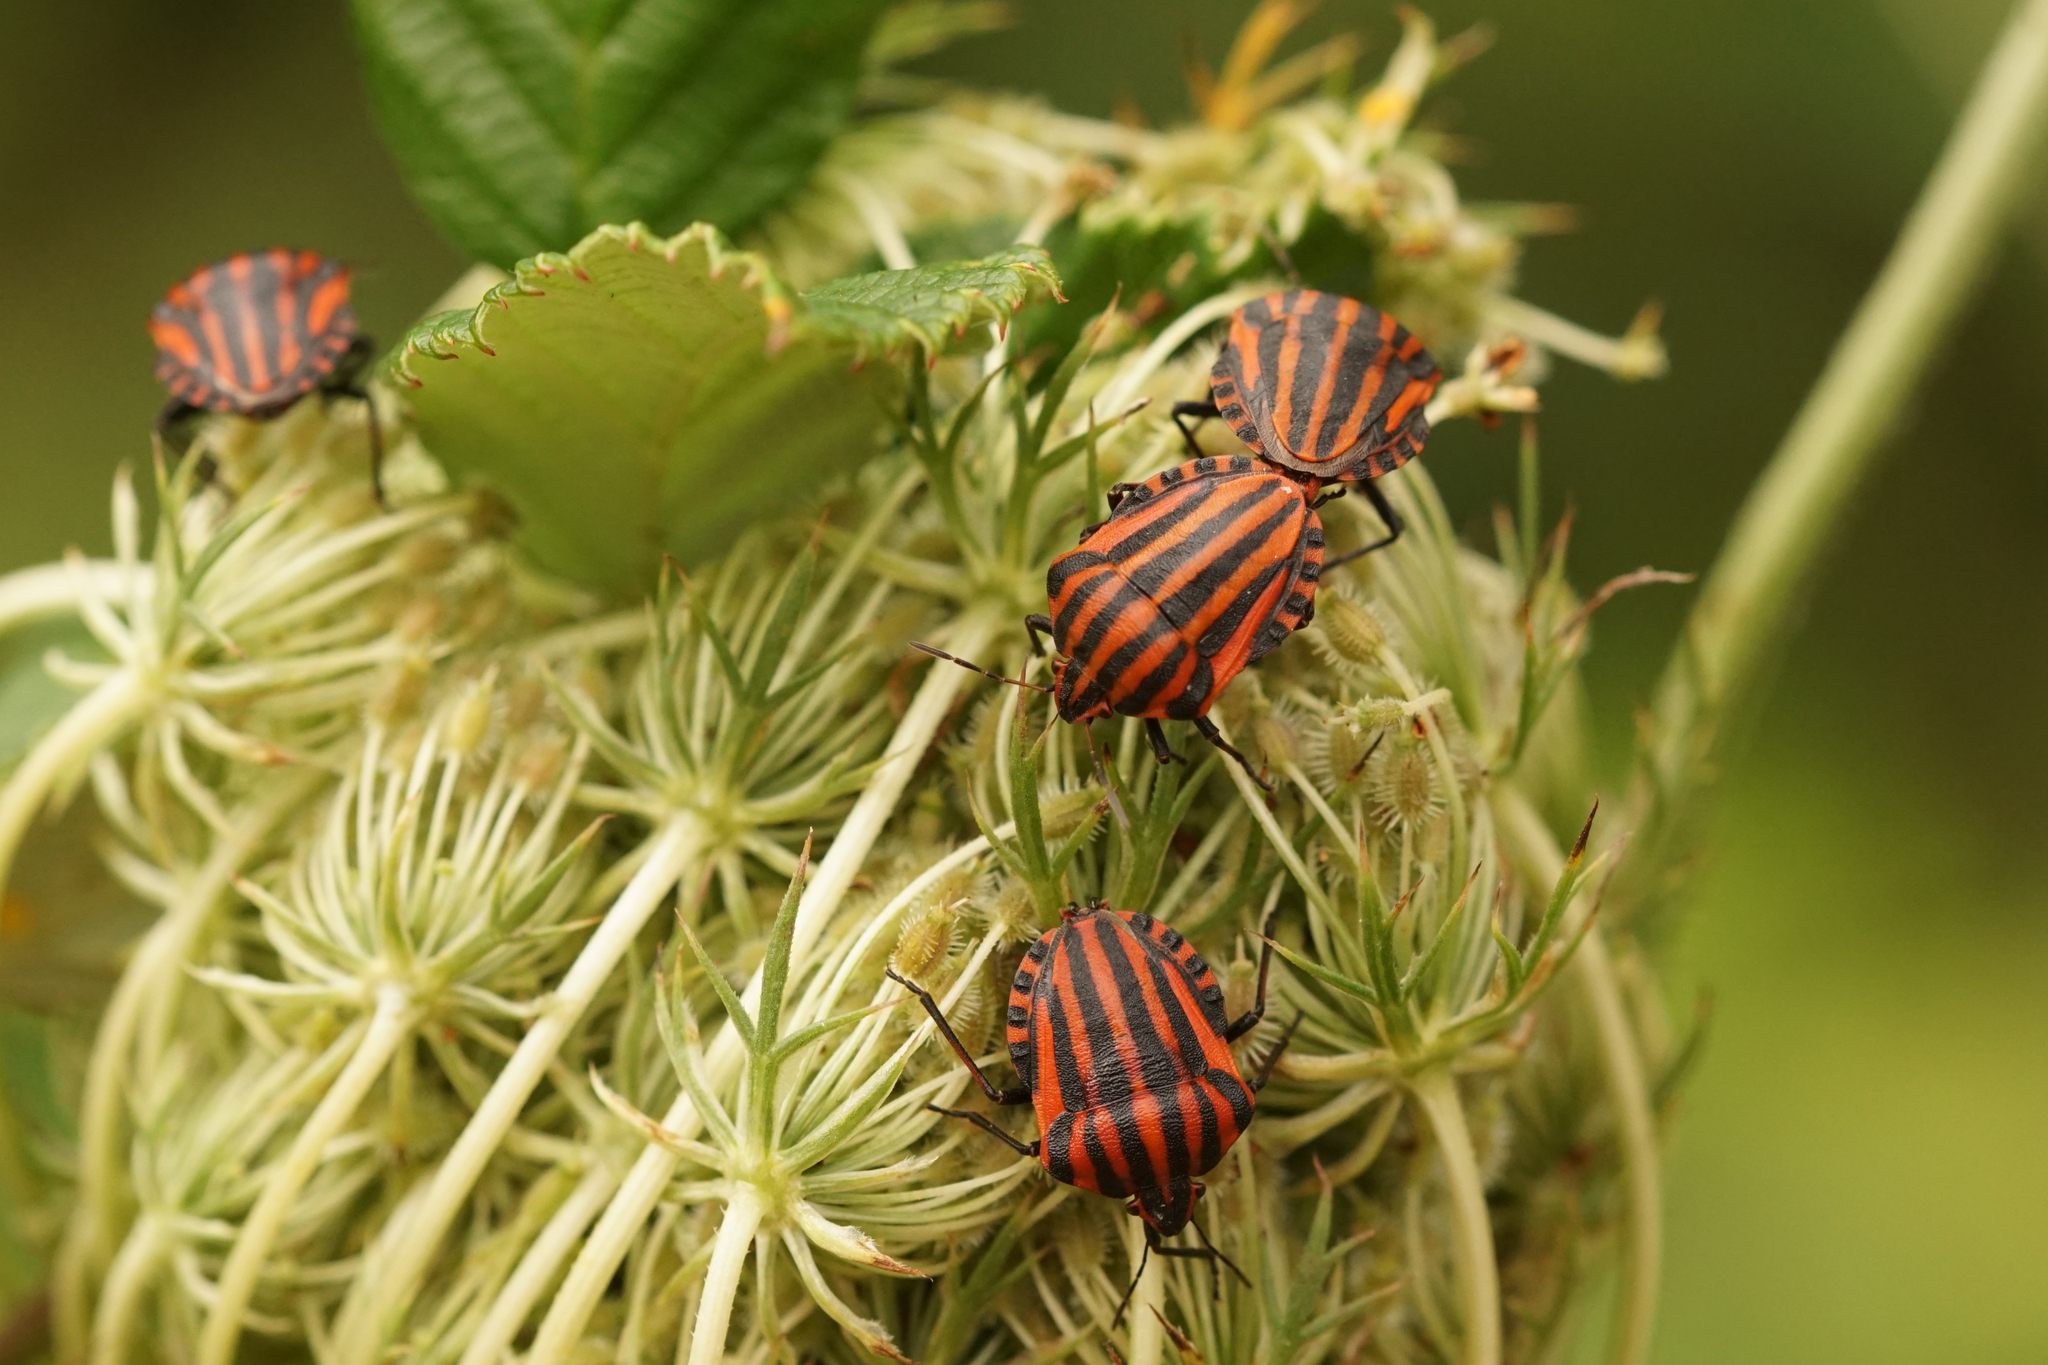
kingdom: Animalia
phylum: Arthropoda
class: Insecta
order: Hemiptera
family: Pentatomidae
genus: Graphosoma
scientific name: Graphosoma italicum
